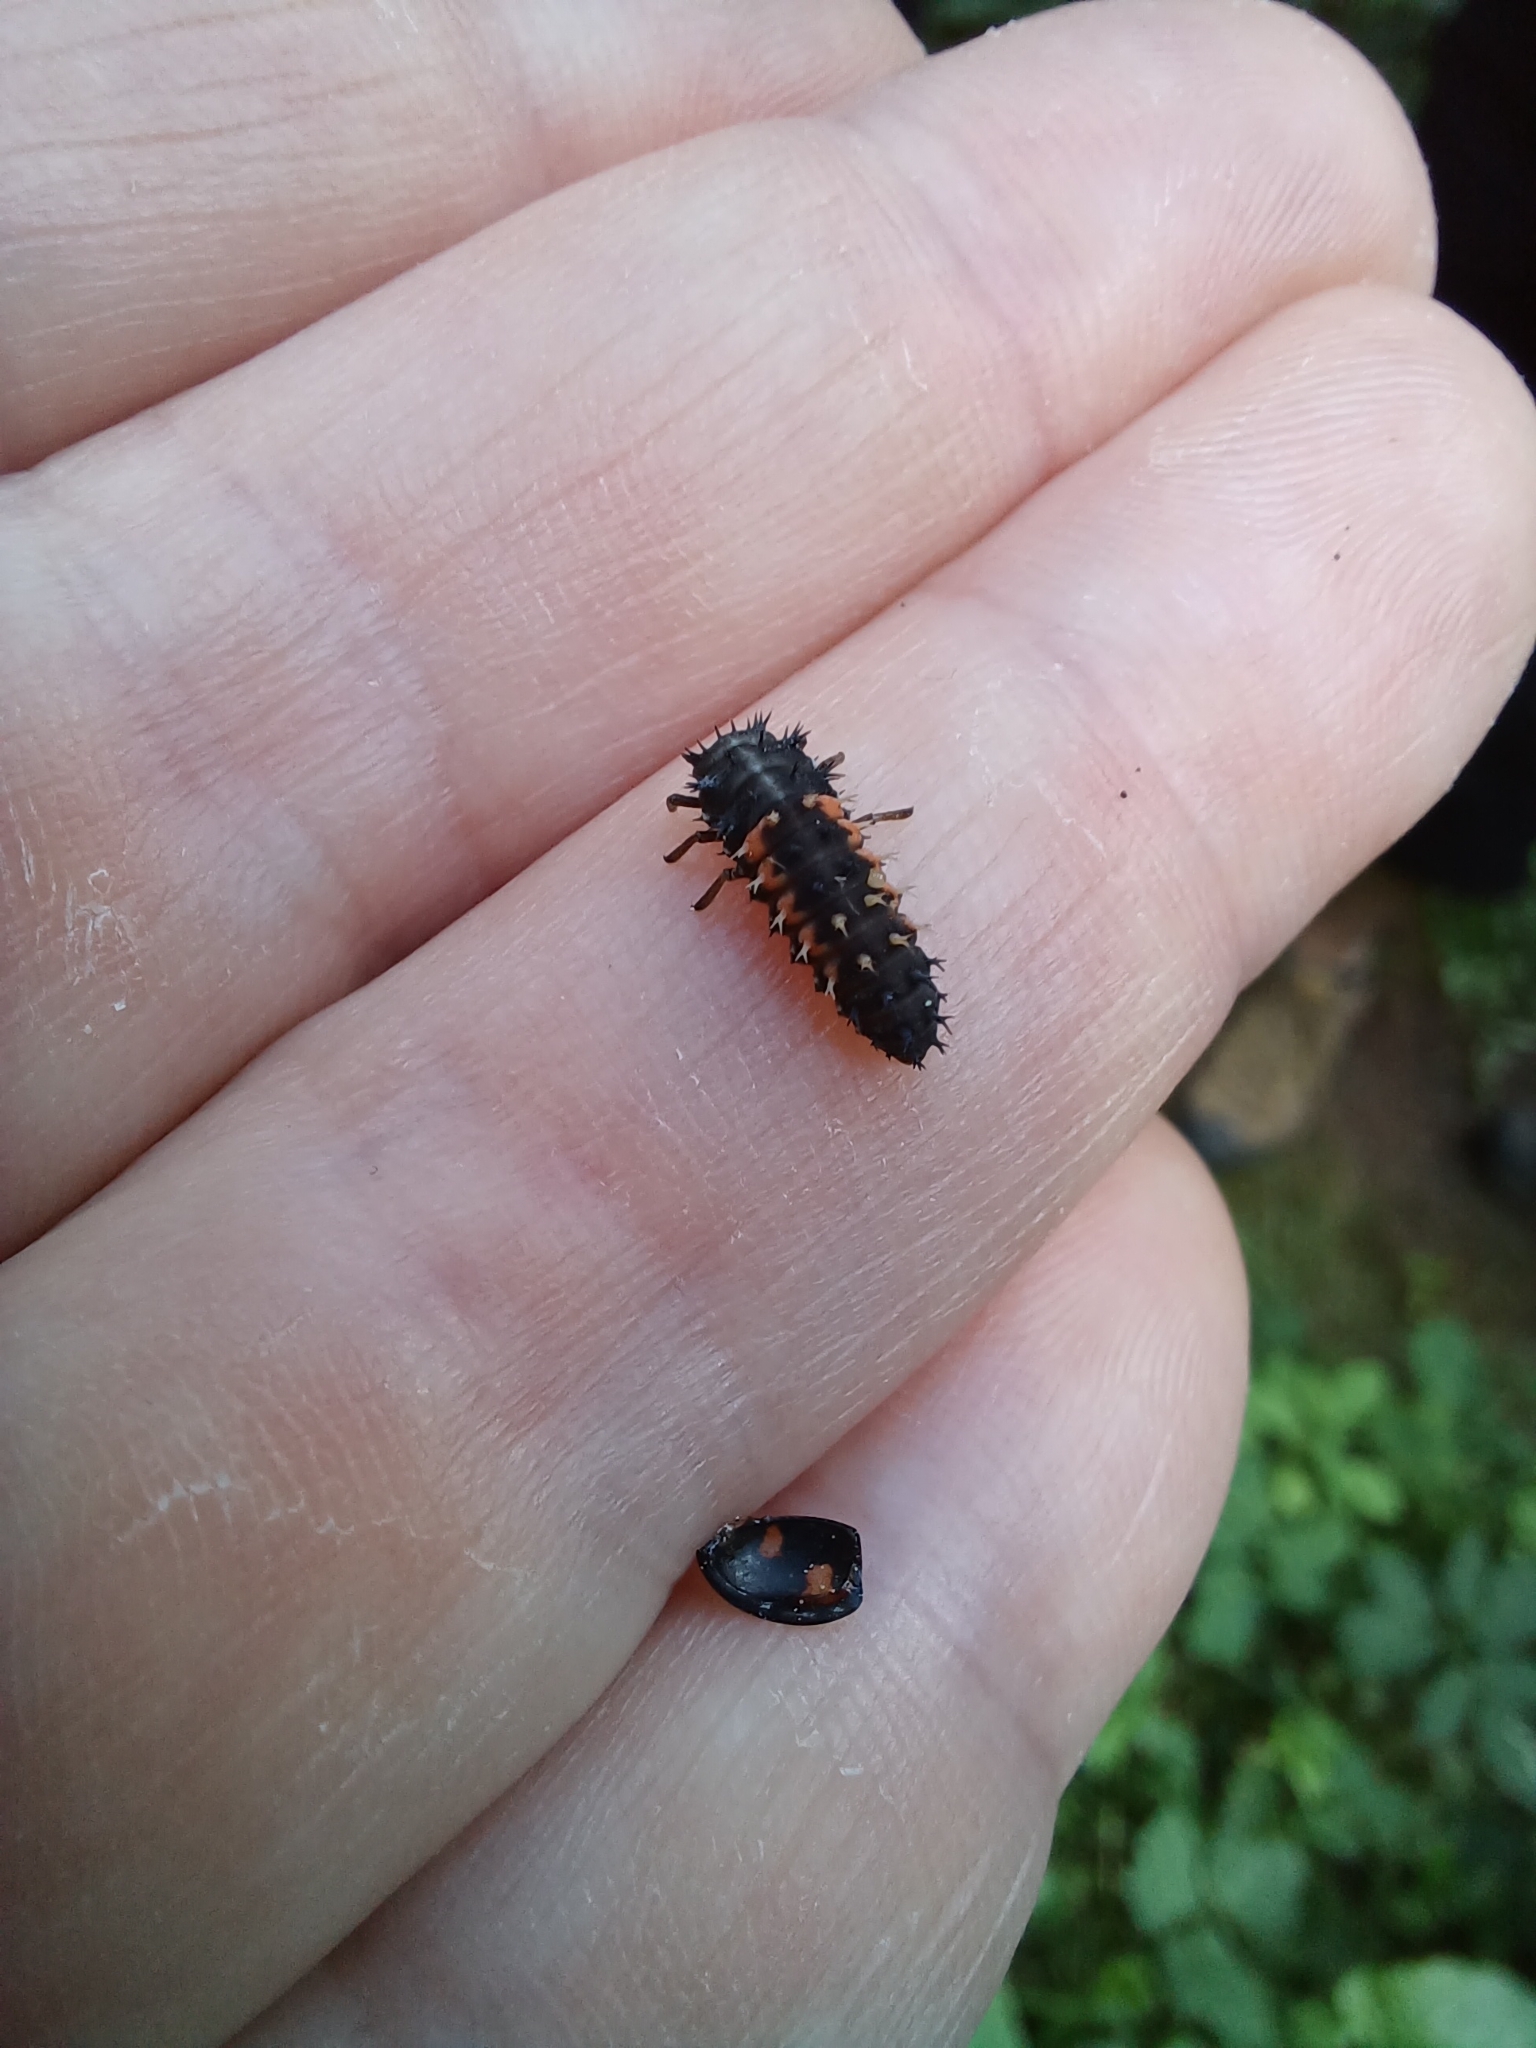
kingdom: Animalia
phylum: Arthropoda
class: Insecta
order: Coleoptera
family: Coccinellidae
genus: Harmonia
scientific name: Harmonia axyridis
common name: Harlequin ladybird
